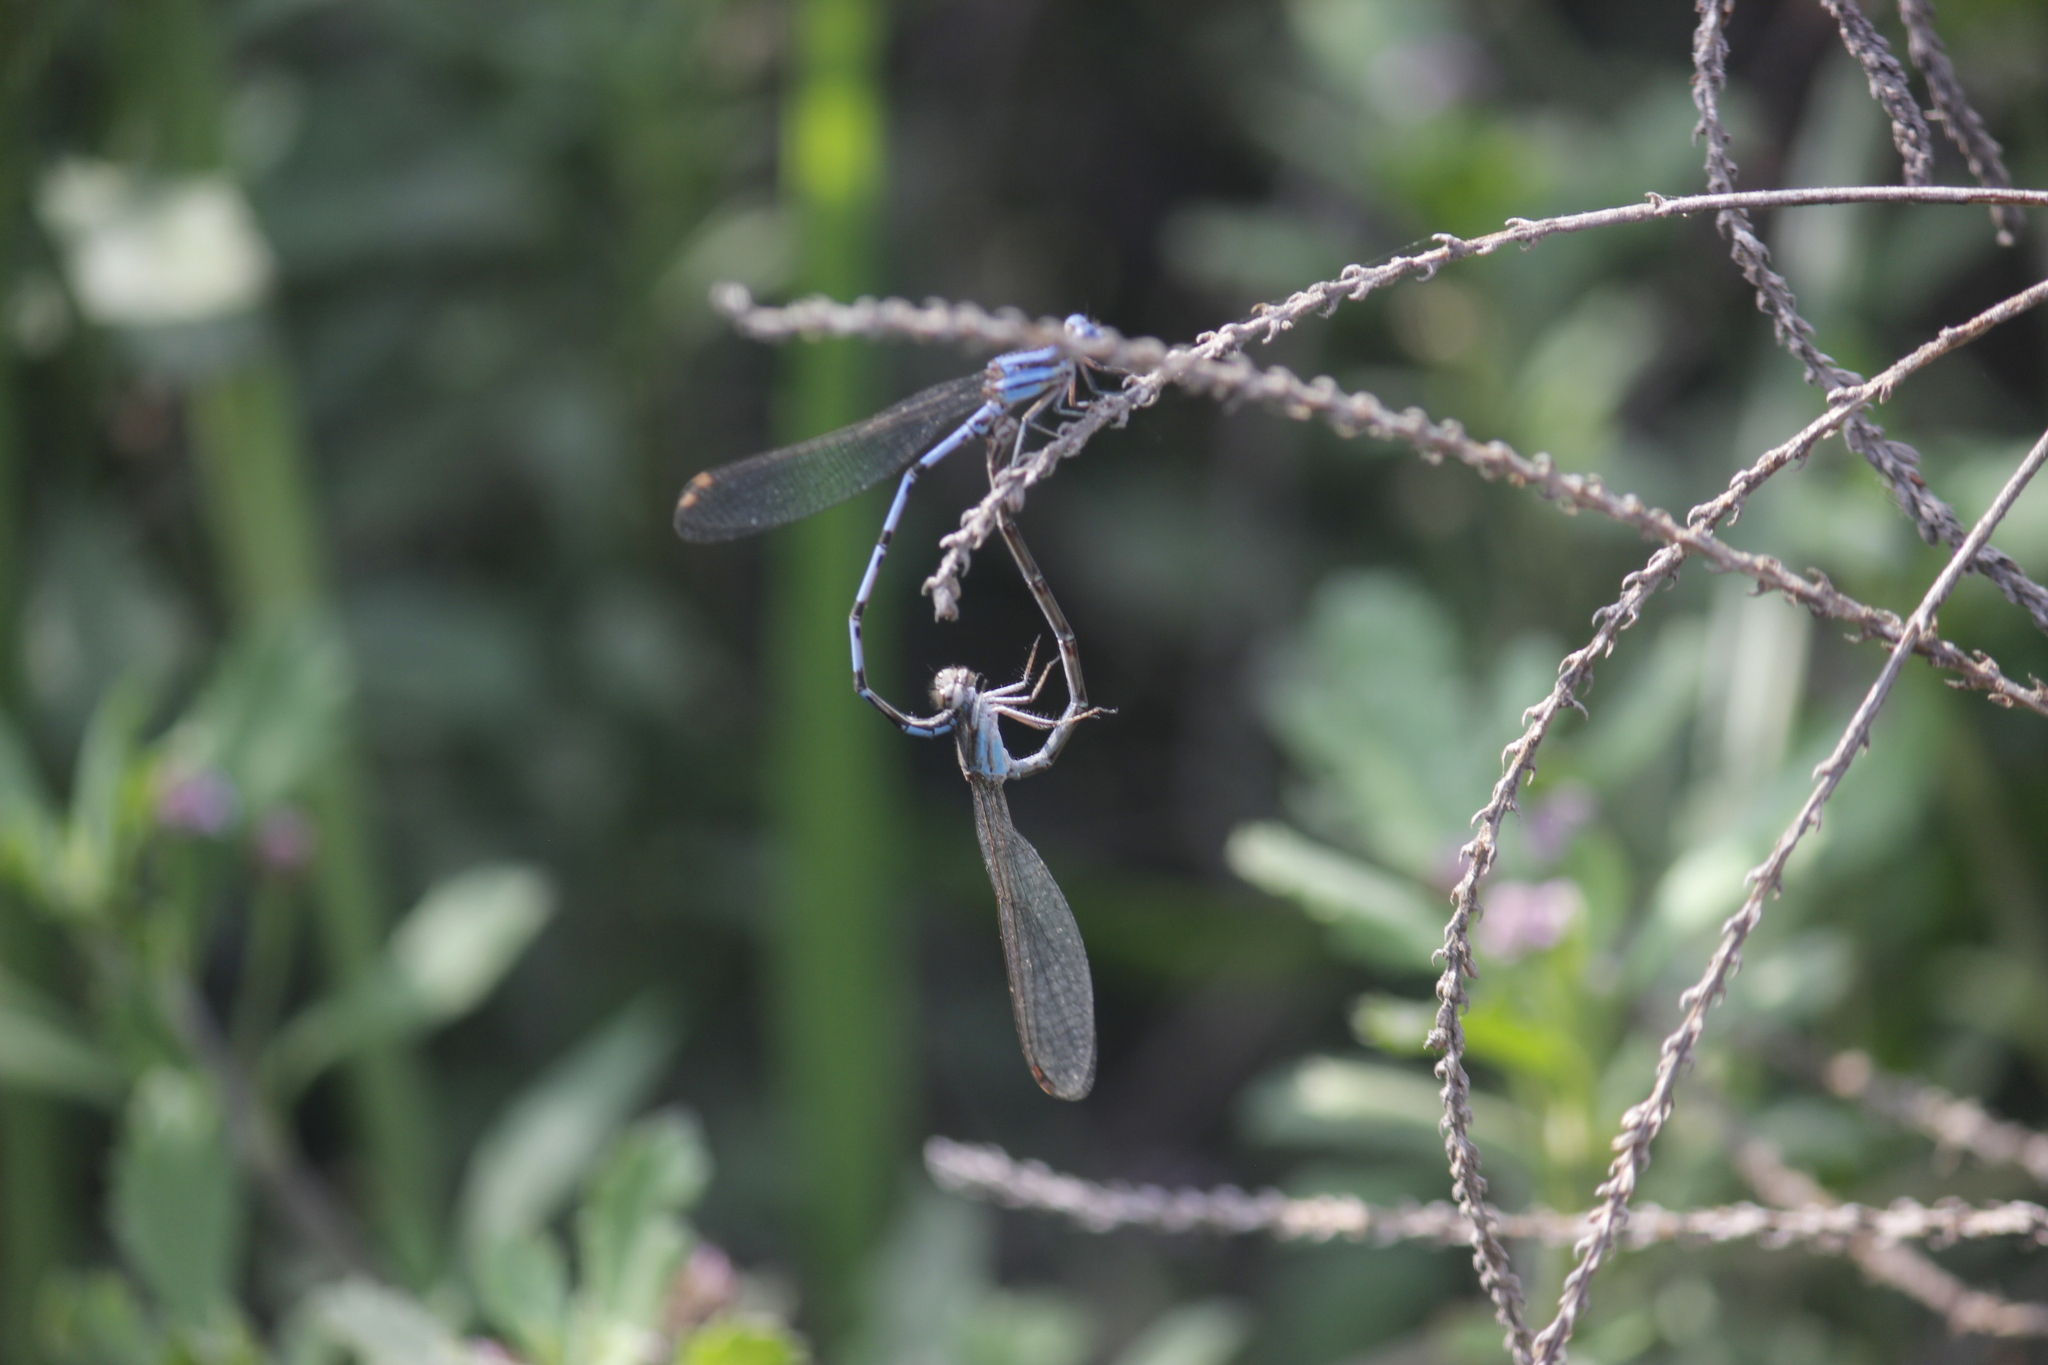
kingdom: Animalia
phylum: Arthropoda
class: Insecta
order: Odonata
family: Coenagrionidae
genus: Argia
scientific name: Argia inculta
